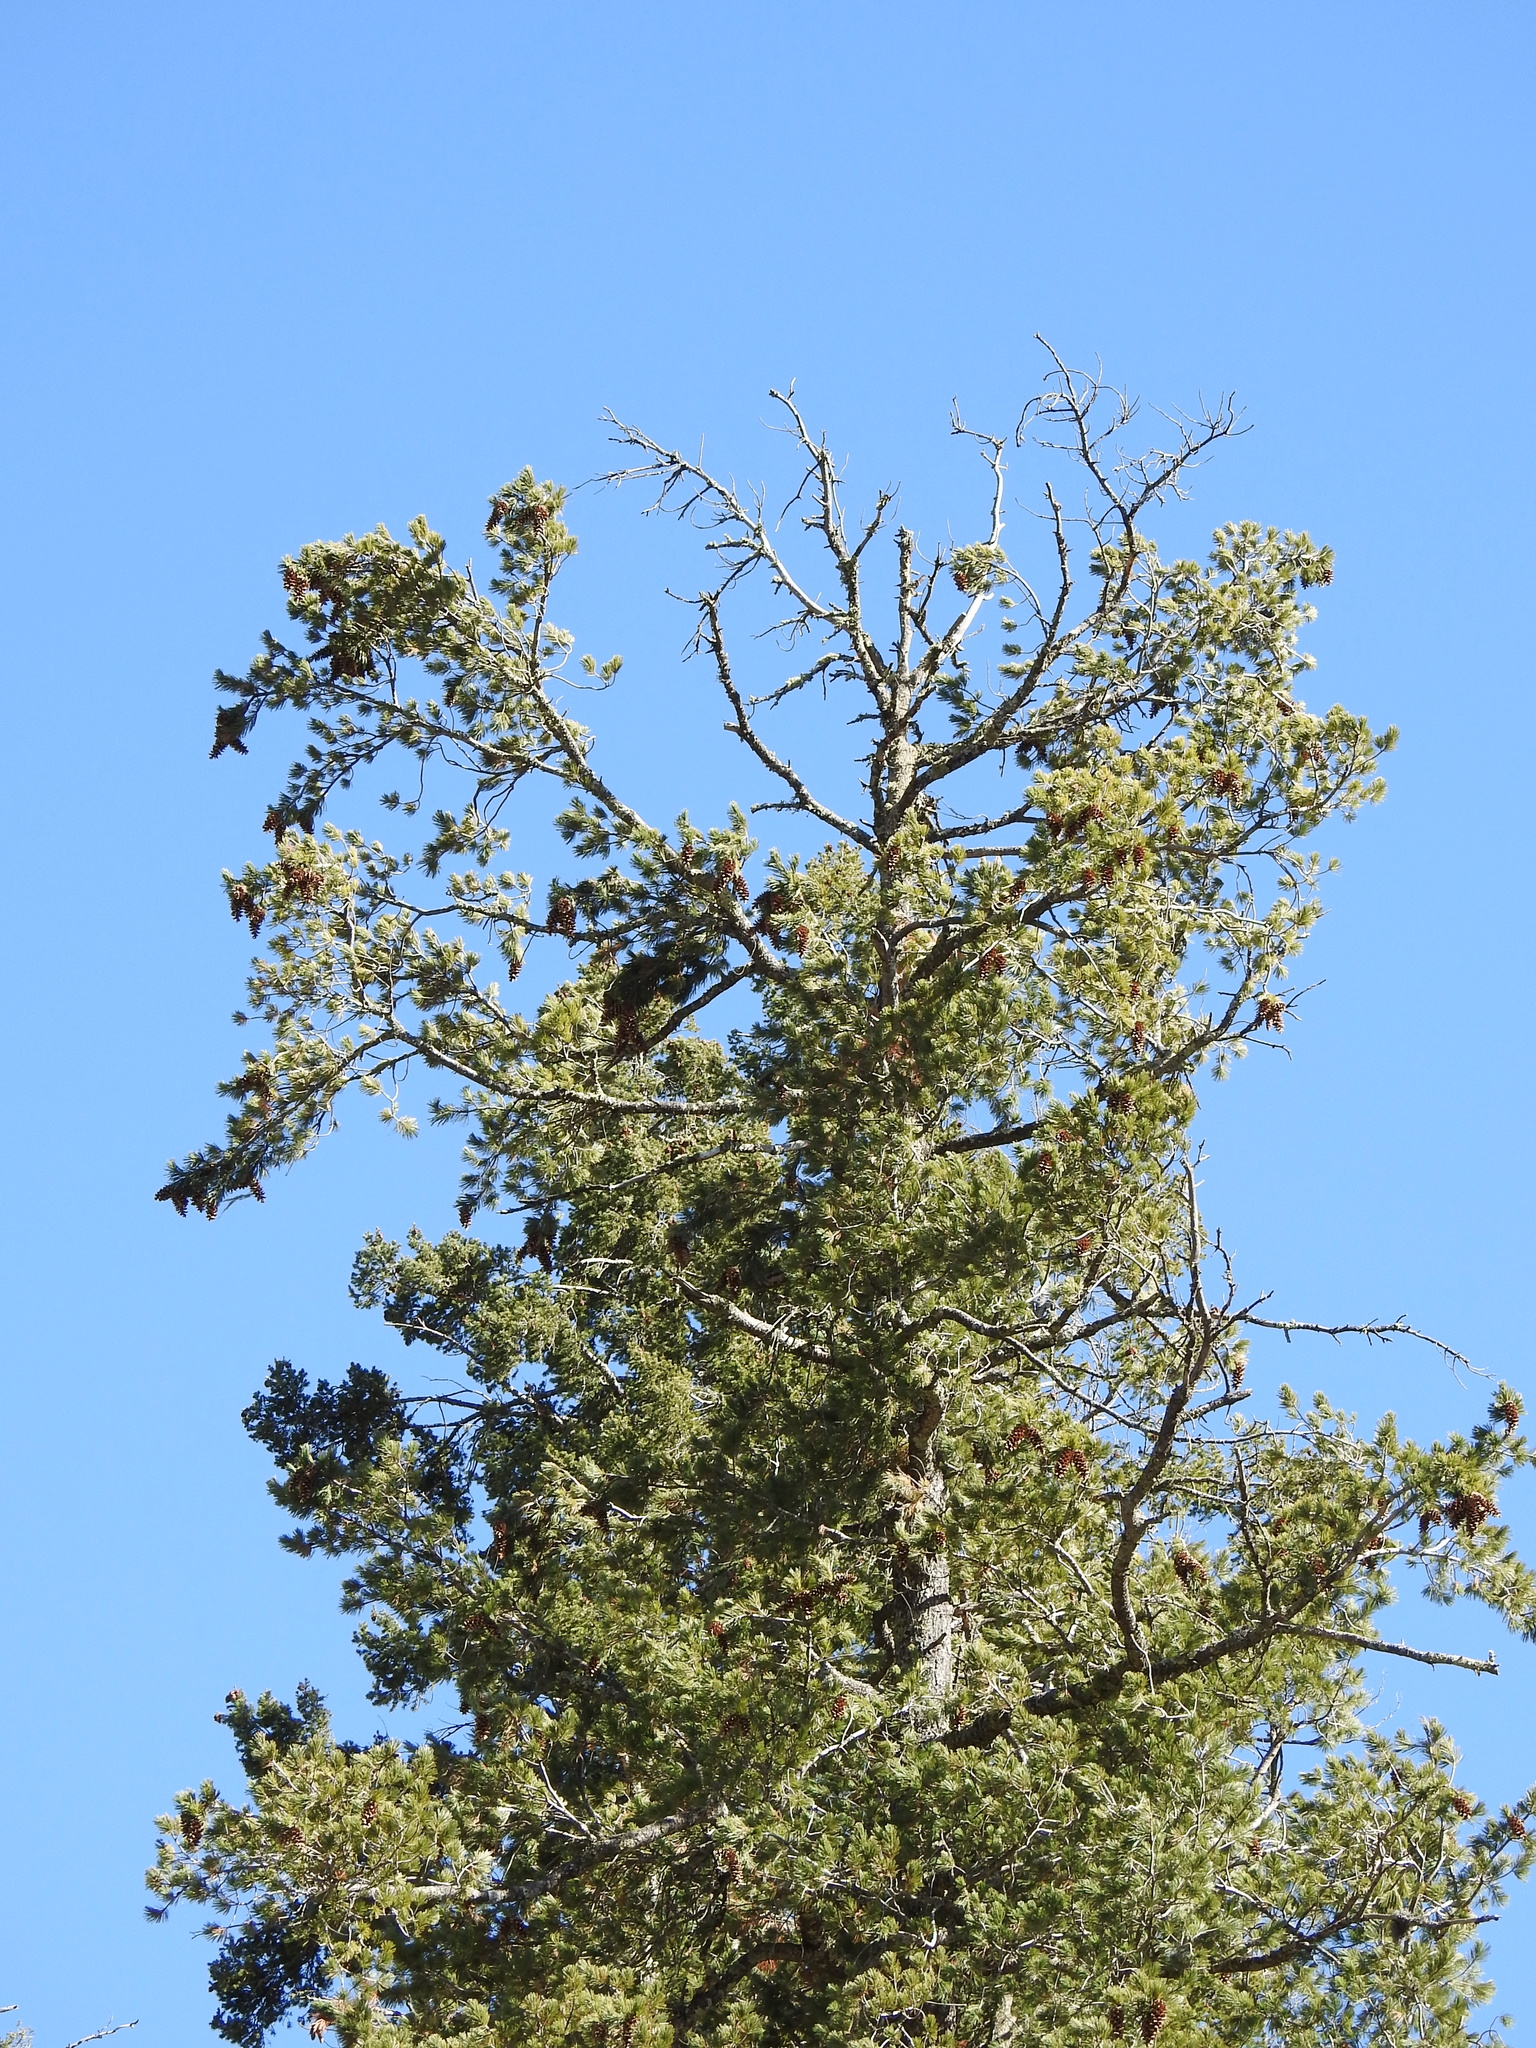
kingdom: Plantae
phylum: Tracheophyta
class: Pinopsida
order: Pinales
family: Pinaceae
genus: Pinus
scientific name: Pinus strobiformis
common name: Southwestern white pine
